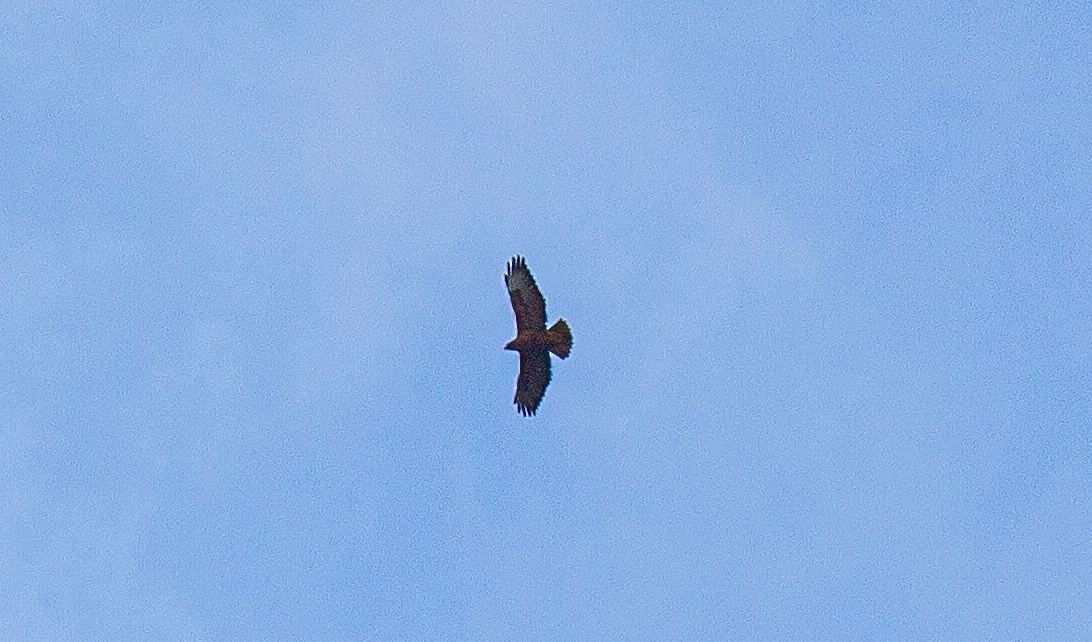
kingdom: Animalia
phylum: Chordata
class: Aves
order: Accipitriformes
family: Accipitridae
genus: Buteo
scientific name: Buteo buteo
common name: Common buzzard
